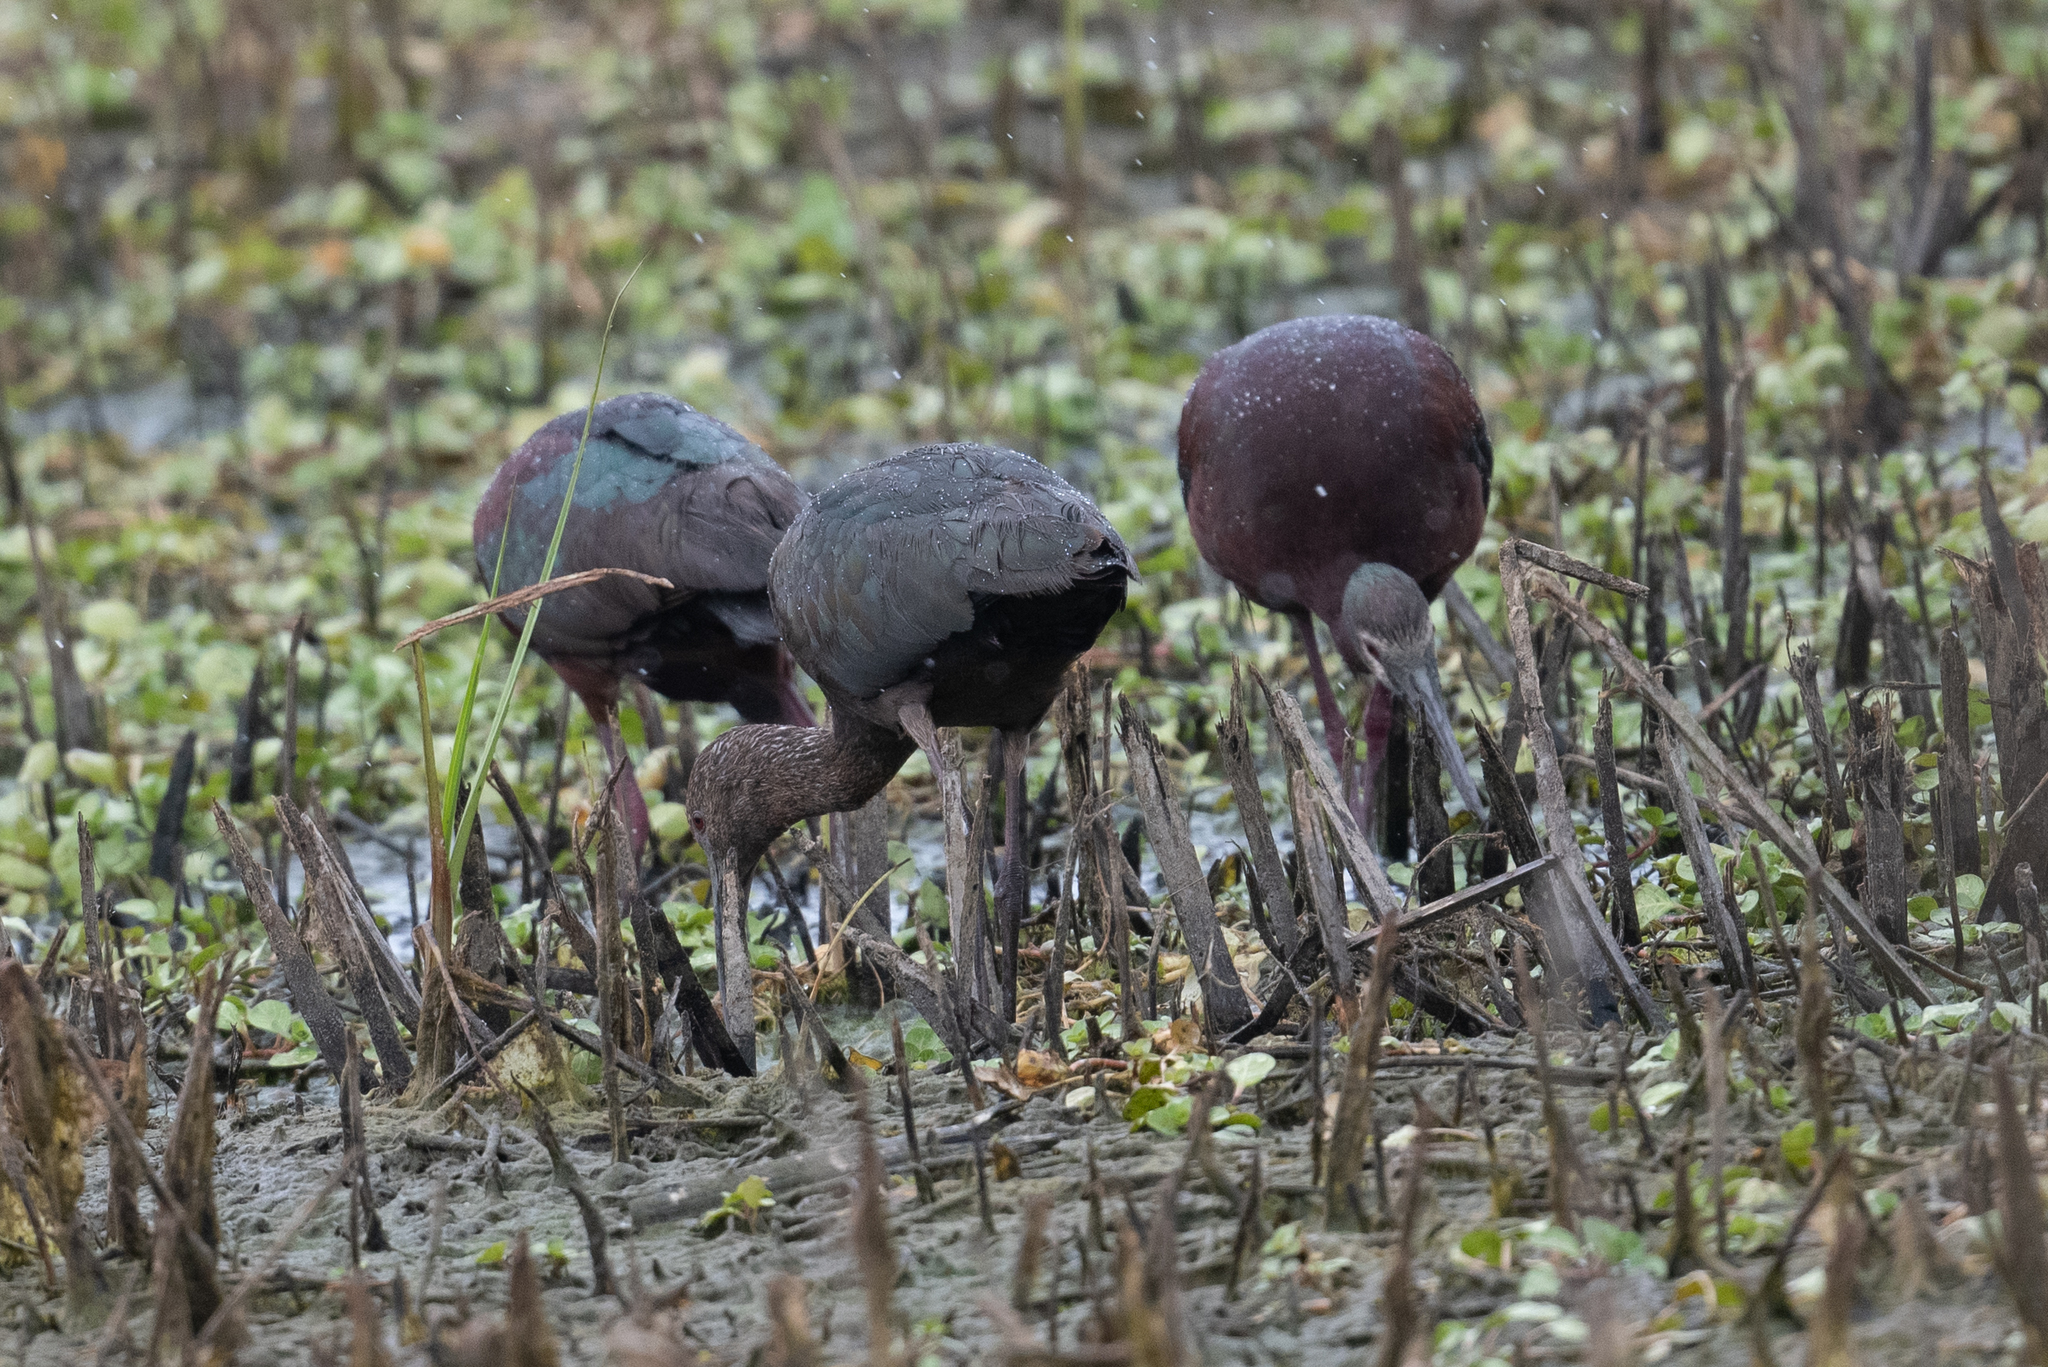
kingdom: Animalia
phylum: Chordata
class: Aves
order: Pelecaniformes
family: Threskiornithidae
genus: Plegadis
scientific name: Plegadis chihi
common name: White-faced ibis
